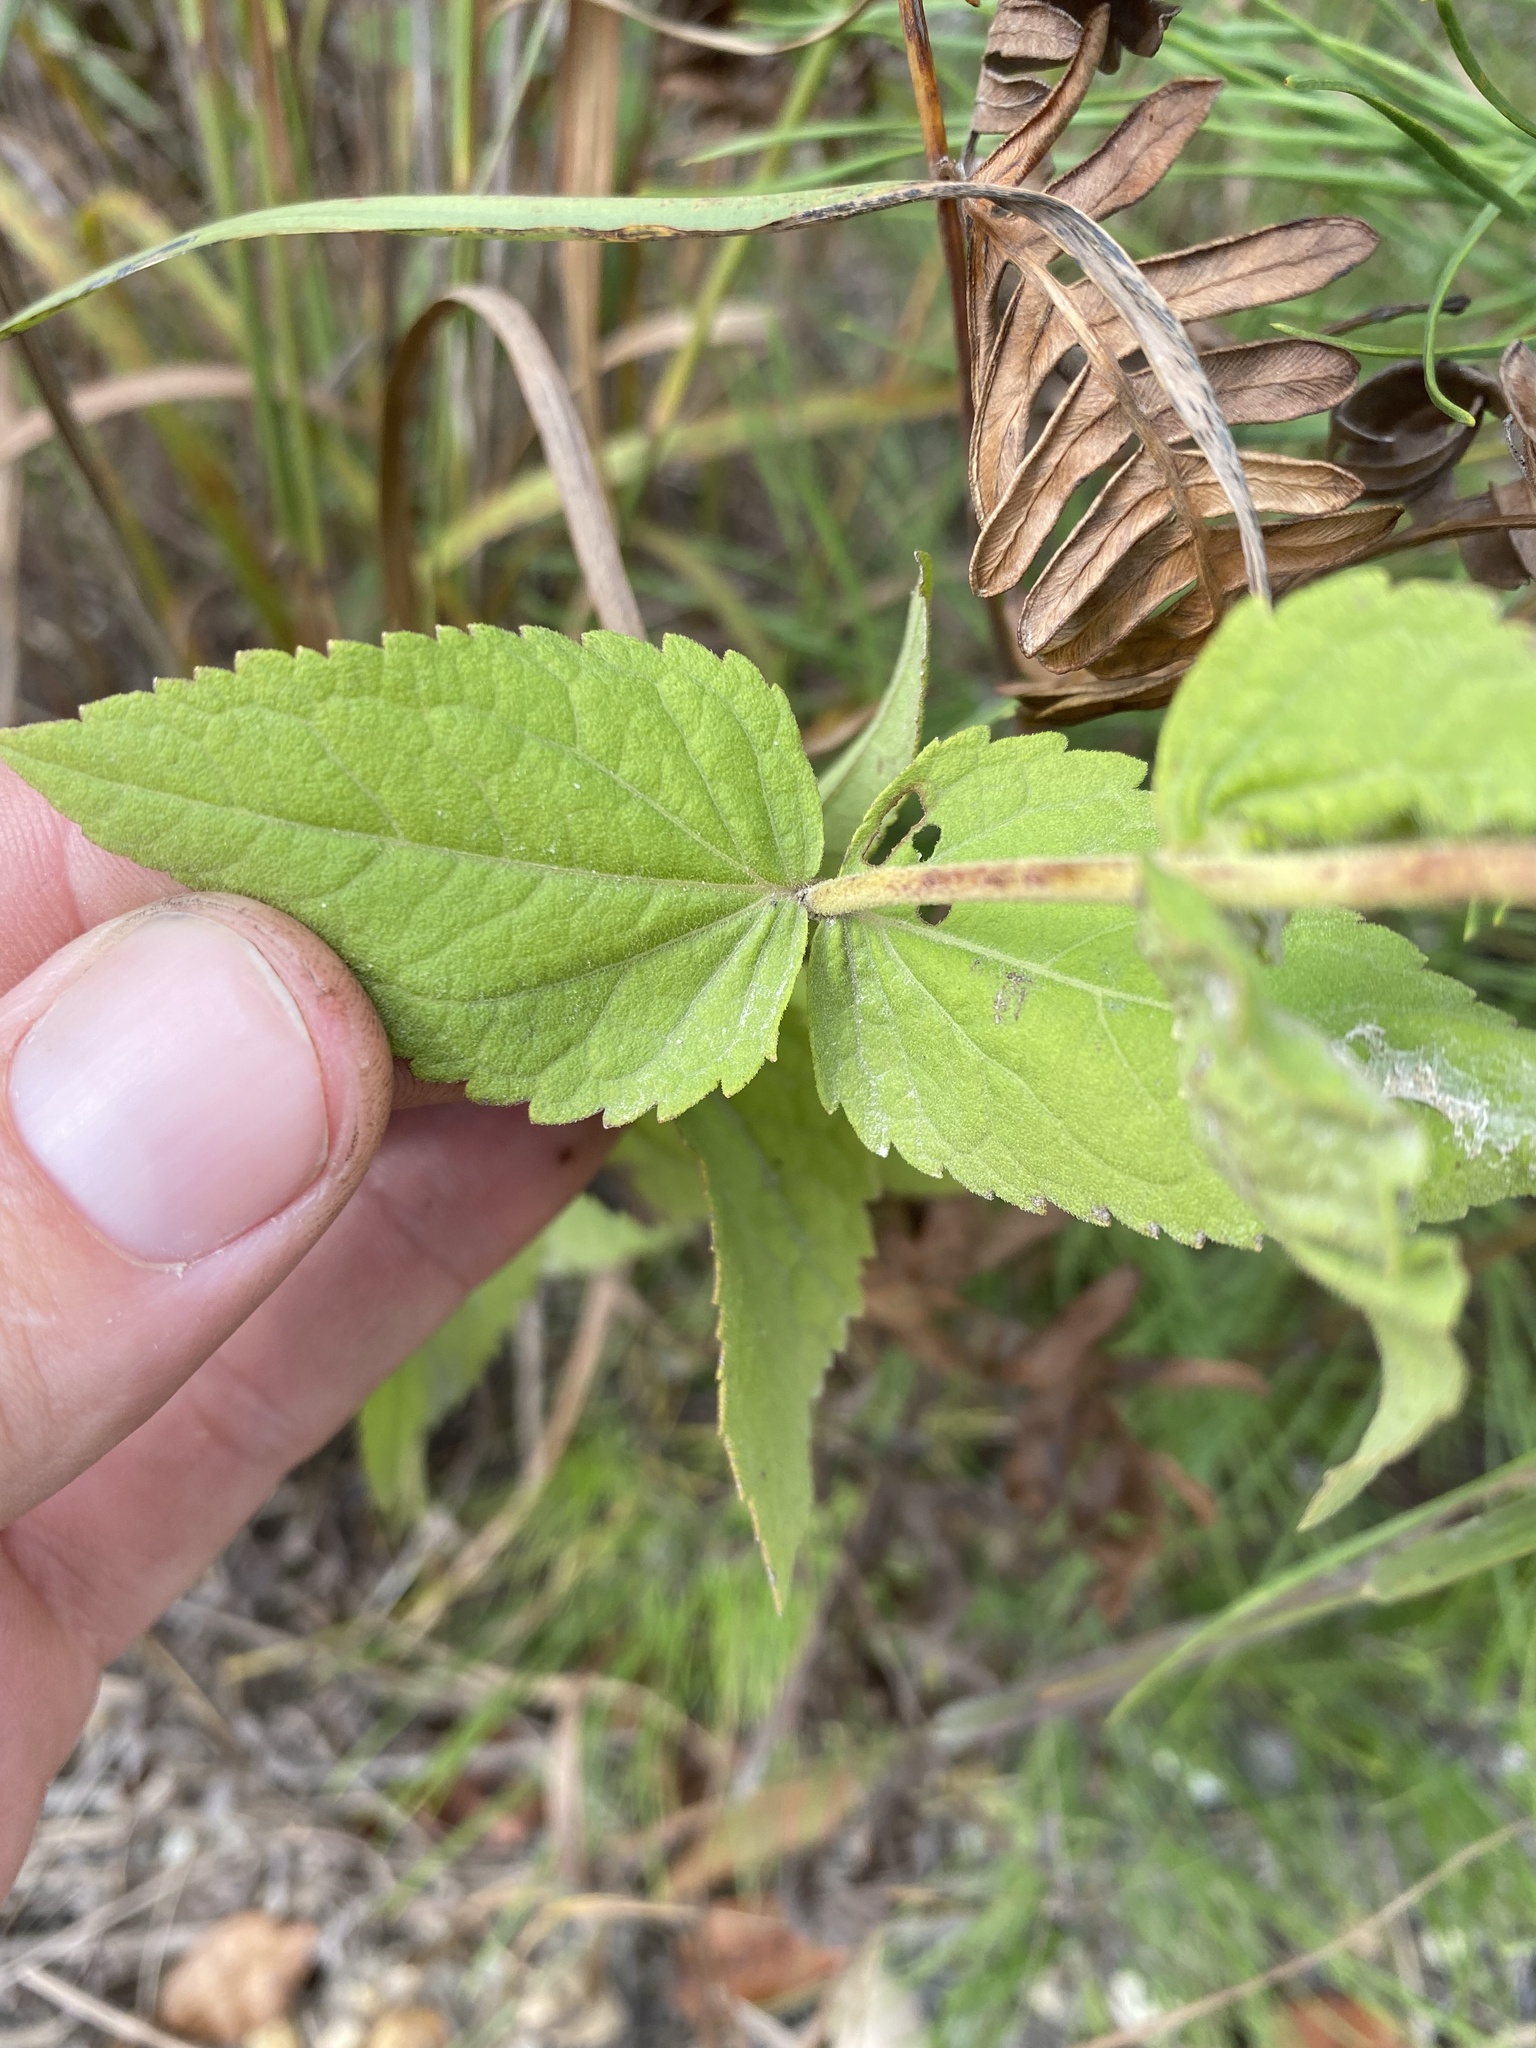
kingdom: Plantae
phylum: Tracheophyta
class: Magnoliopsida
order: Asterales
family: Asteraceae
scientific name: Asteraceae
